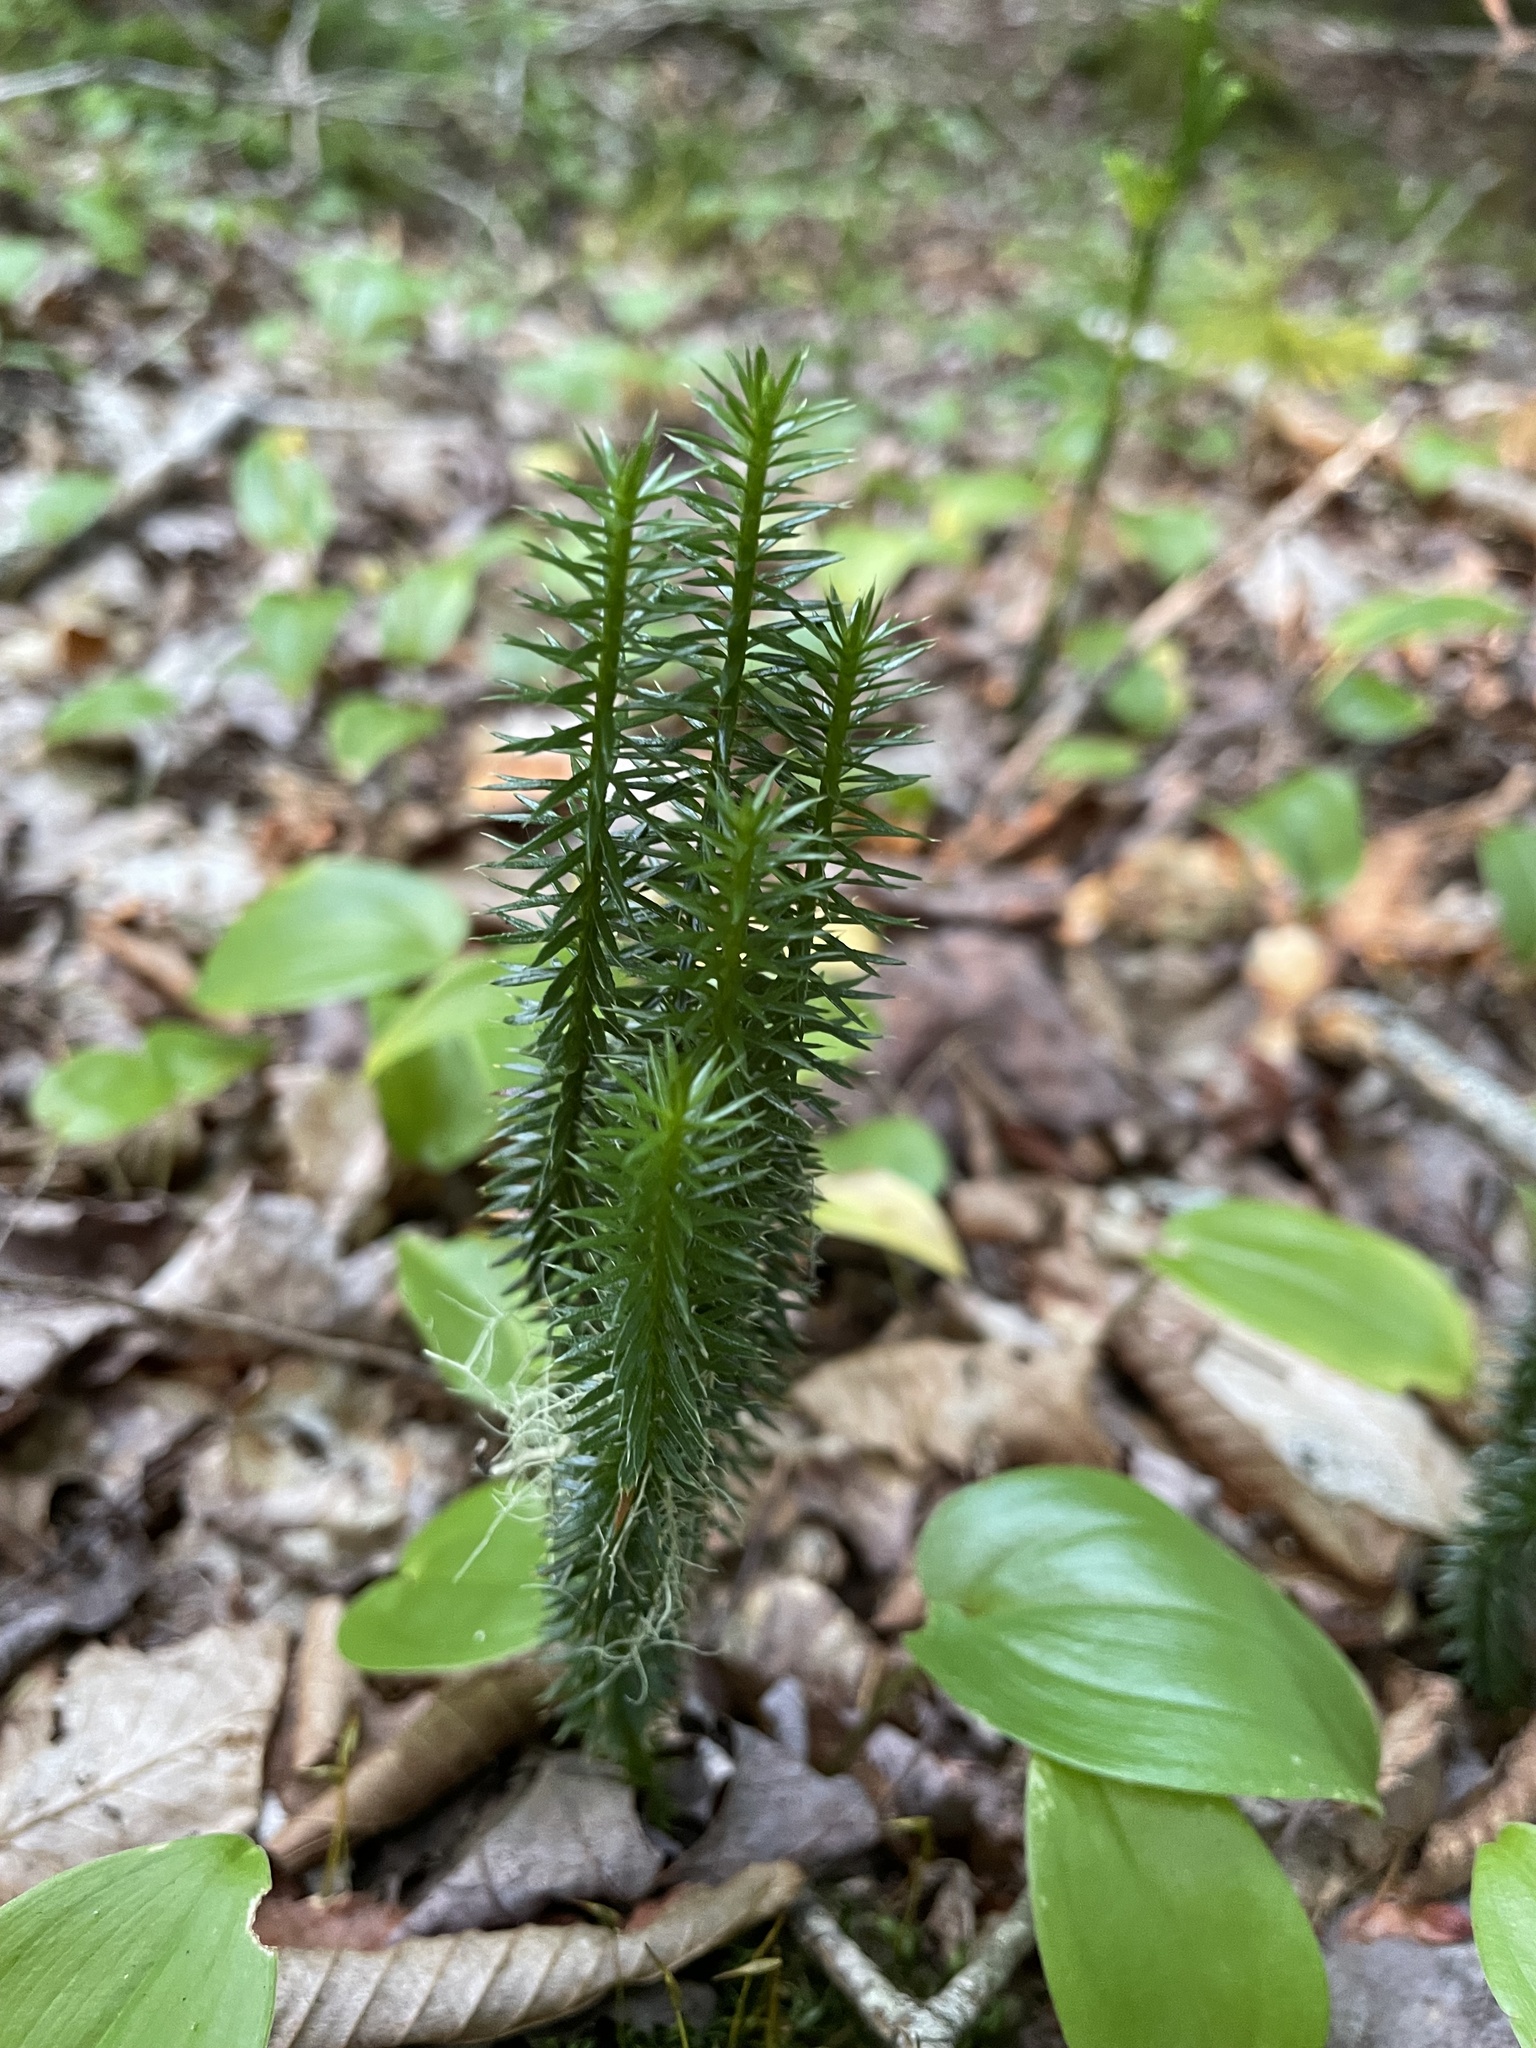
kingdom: Plantae
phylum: Tracheophyta
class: Lycopodiopsida
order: Lycopodiales
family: Lycopodiaceae
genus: Spinulum
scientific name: Spinulum annotinum
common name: Interrupted club-moss
